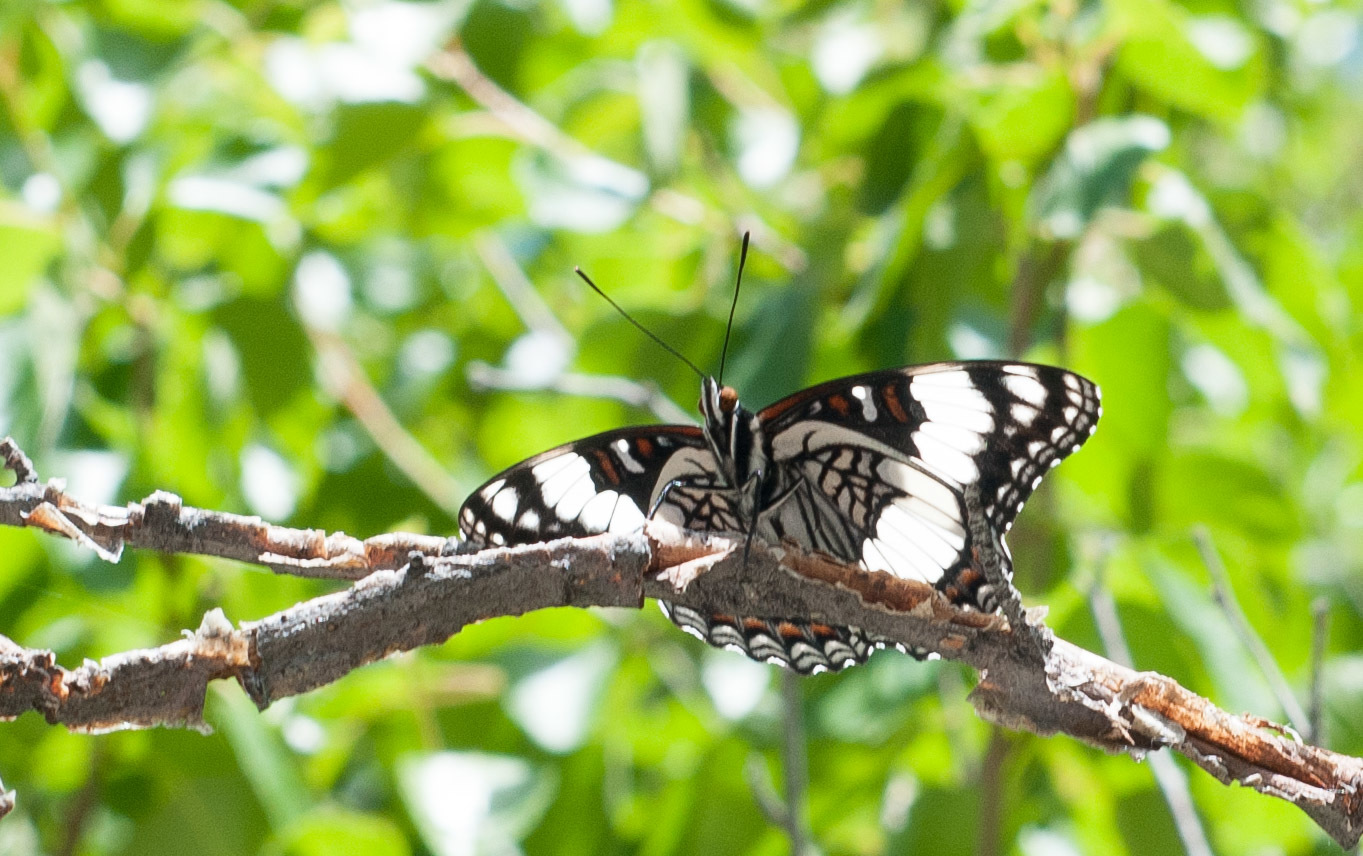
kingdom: Animalia
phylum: Arthropoda
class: Insecta
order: Lepidoptera
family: Nymphalidae
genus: Limenitis
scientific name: Limenitis weidemeyerii
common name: Weidemeyer's admiral
